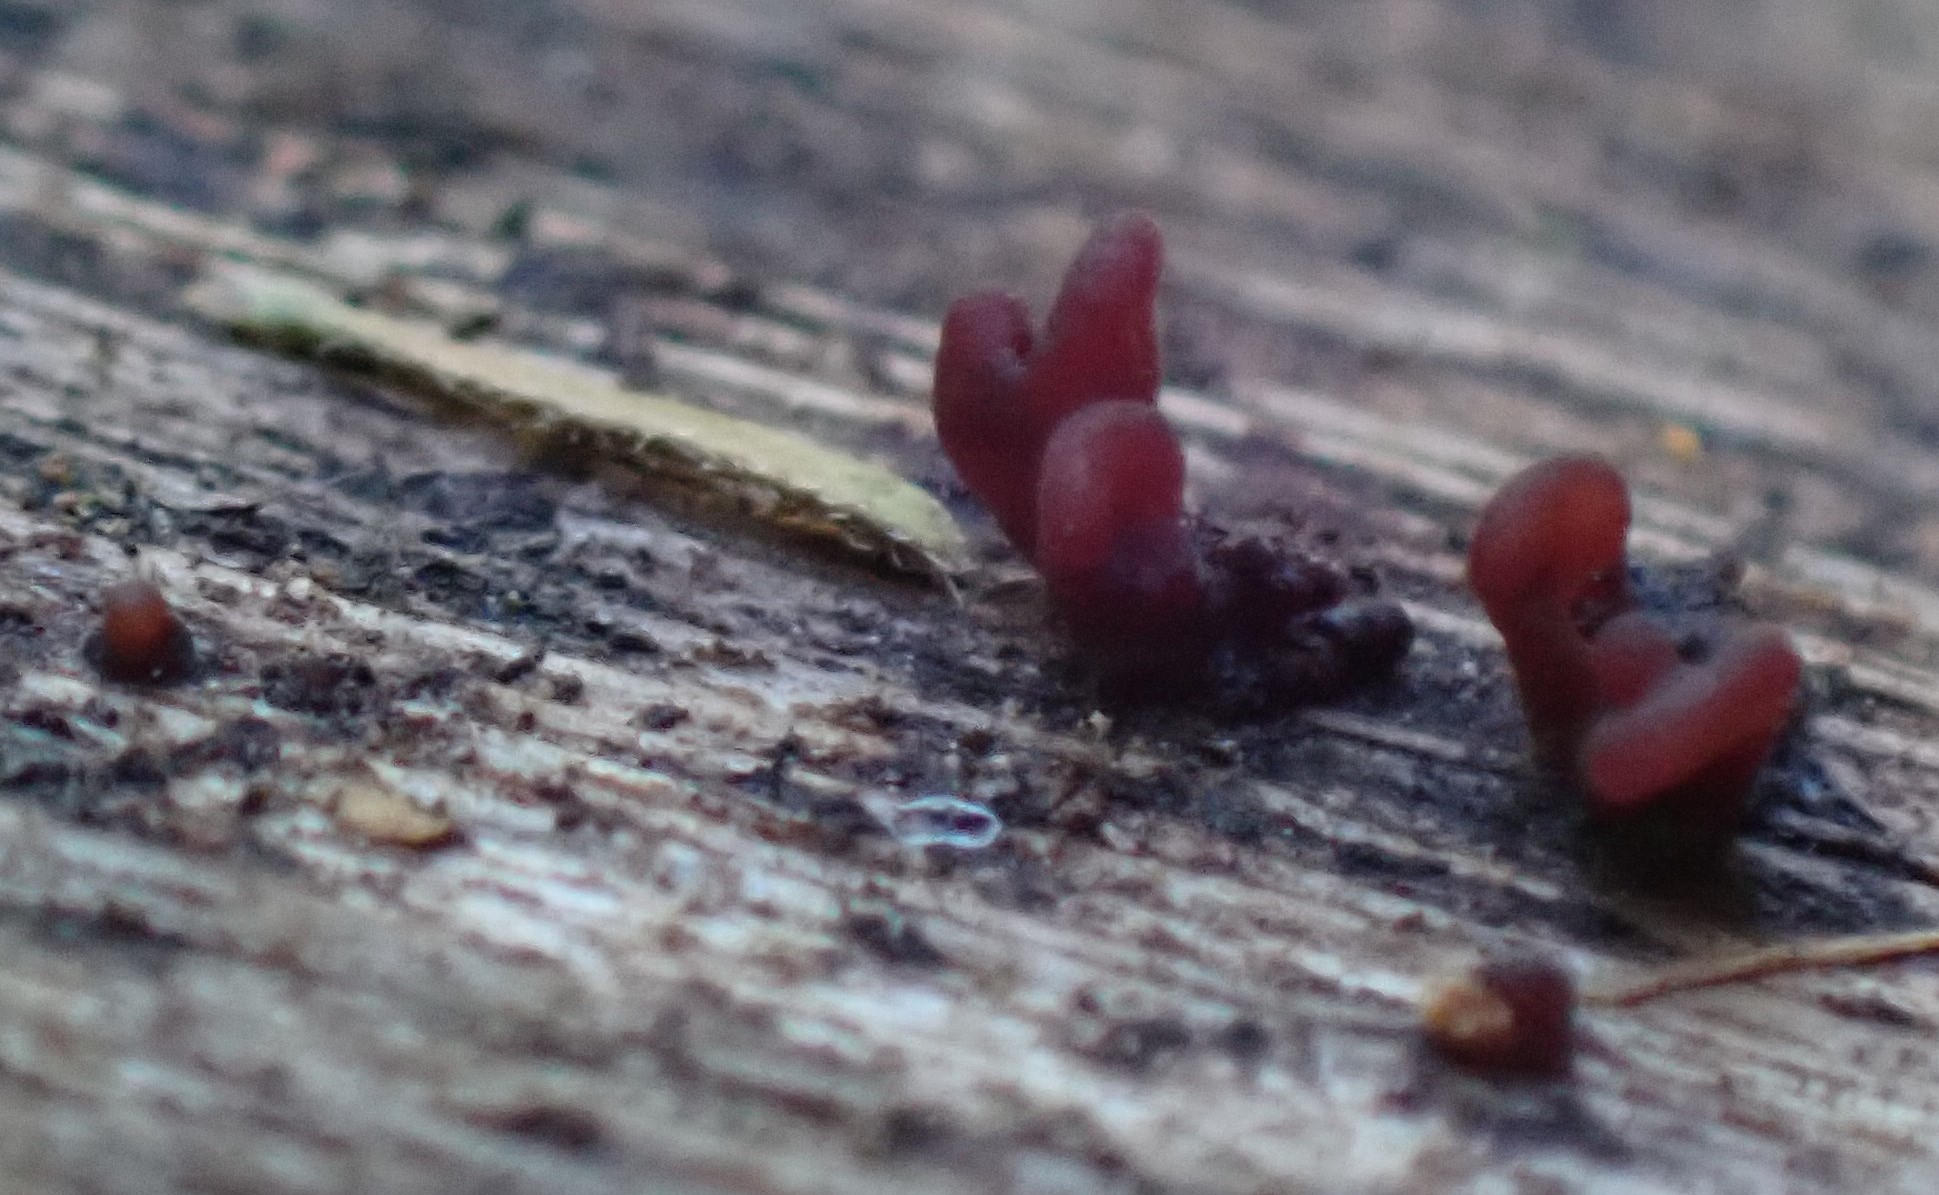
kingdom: Fungi
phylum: Ascomycota
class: Leotiomycetes
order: Helotiales
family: Gelatinodiscaceae
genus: Ascocoryne
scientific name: Ascocoryne sarcoides
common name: Purple jellydisc
